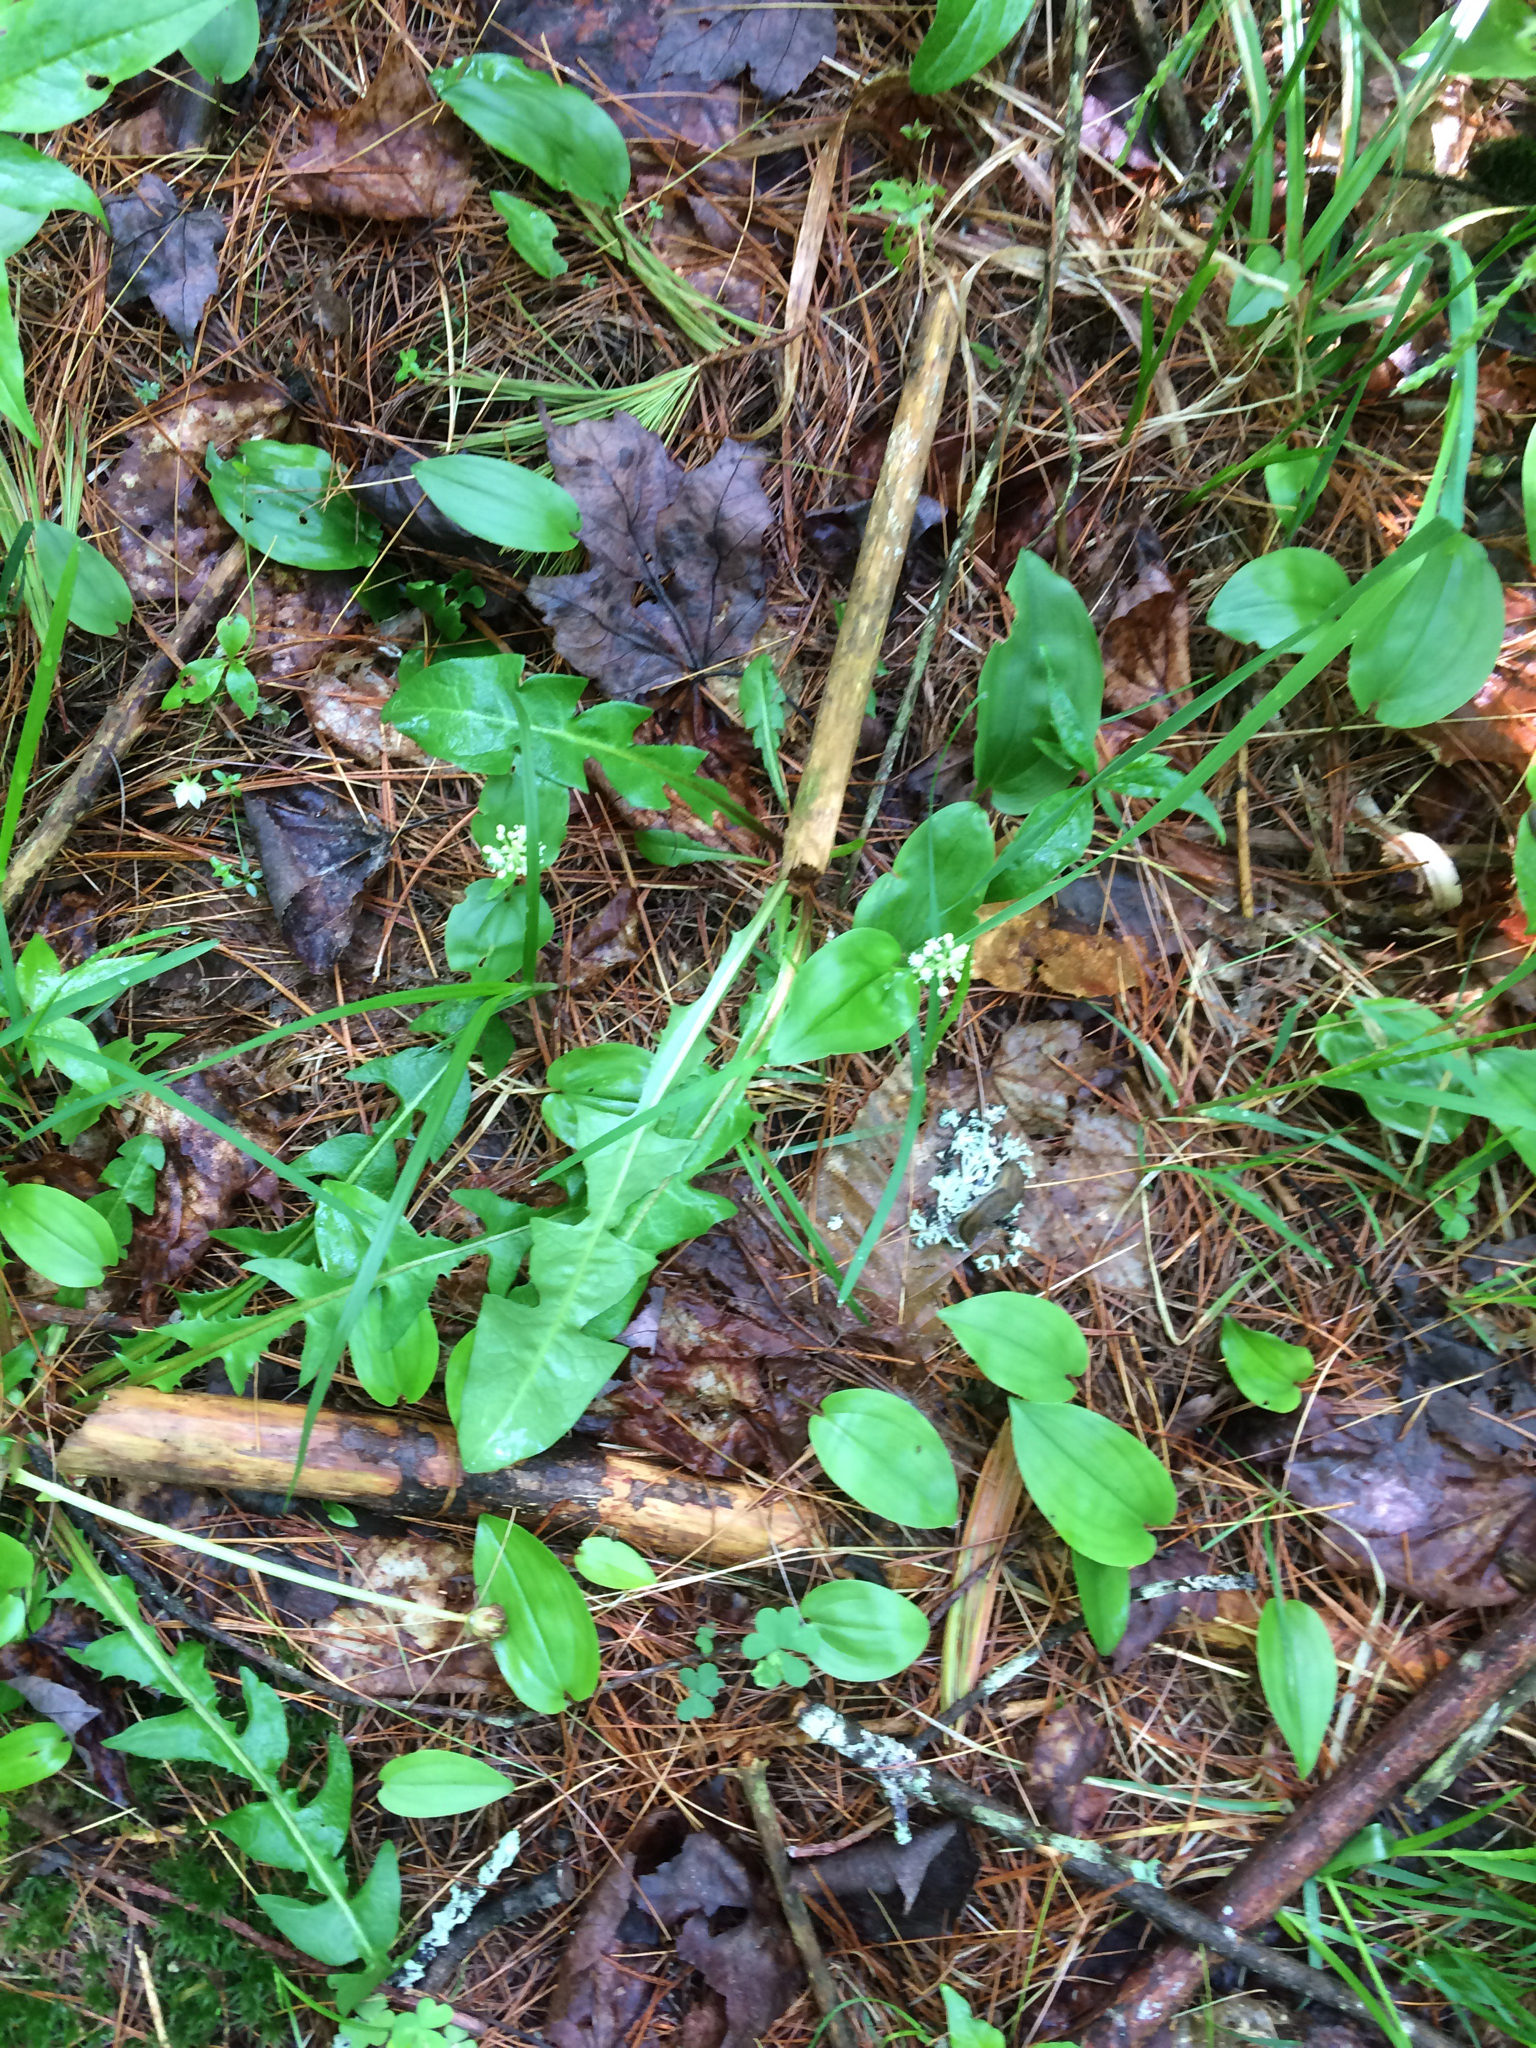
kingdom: Plantae
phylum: Tracheophyta
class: Liliopsida
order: Asparagales
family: Asparagaceae
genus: Maianthemum
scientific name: Maianthemum canadense
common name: False lily-of-the-valley
